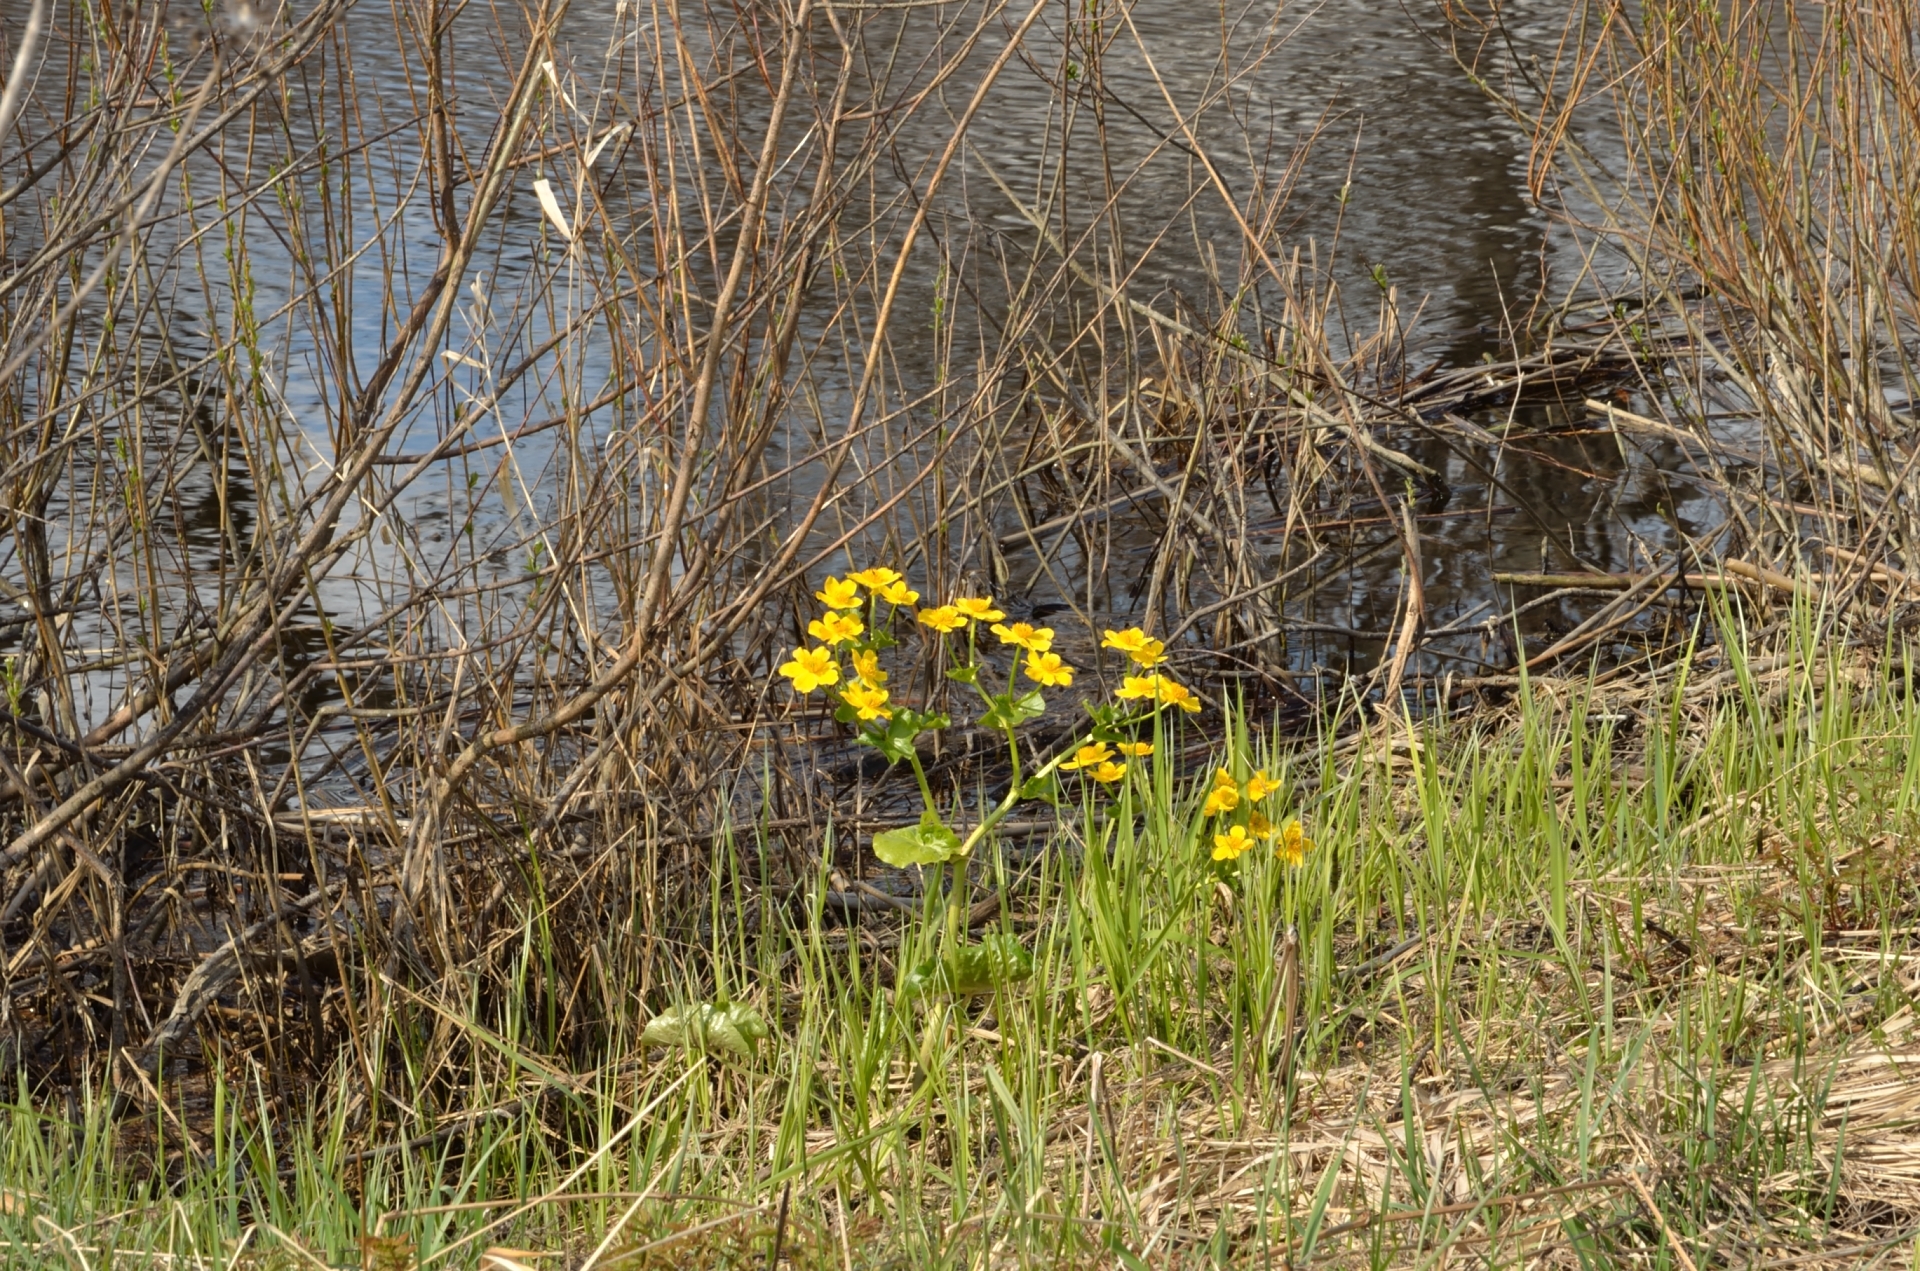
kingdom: Plantae
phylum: Tracheophyta
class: Magnoliopsida
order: Ranunculales
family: Ranunculaceae
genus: Caltha
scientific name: Caltha palustris
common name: Marsh marigold
